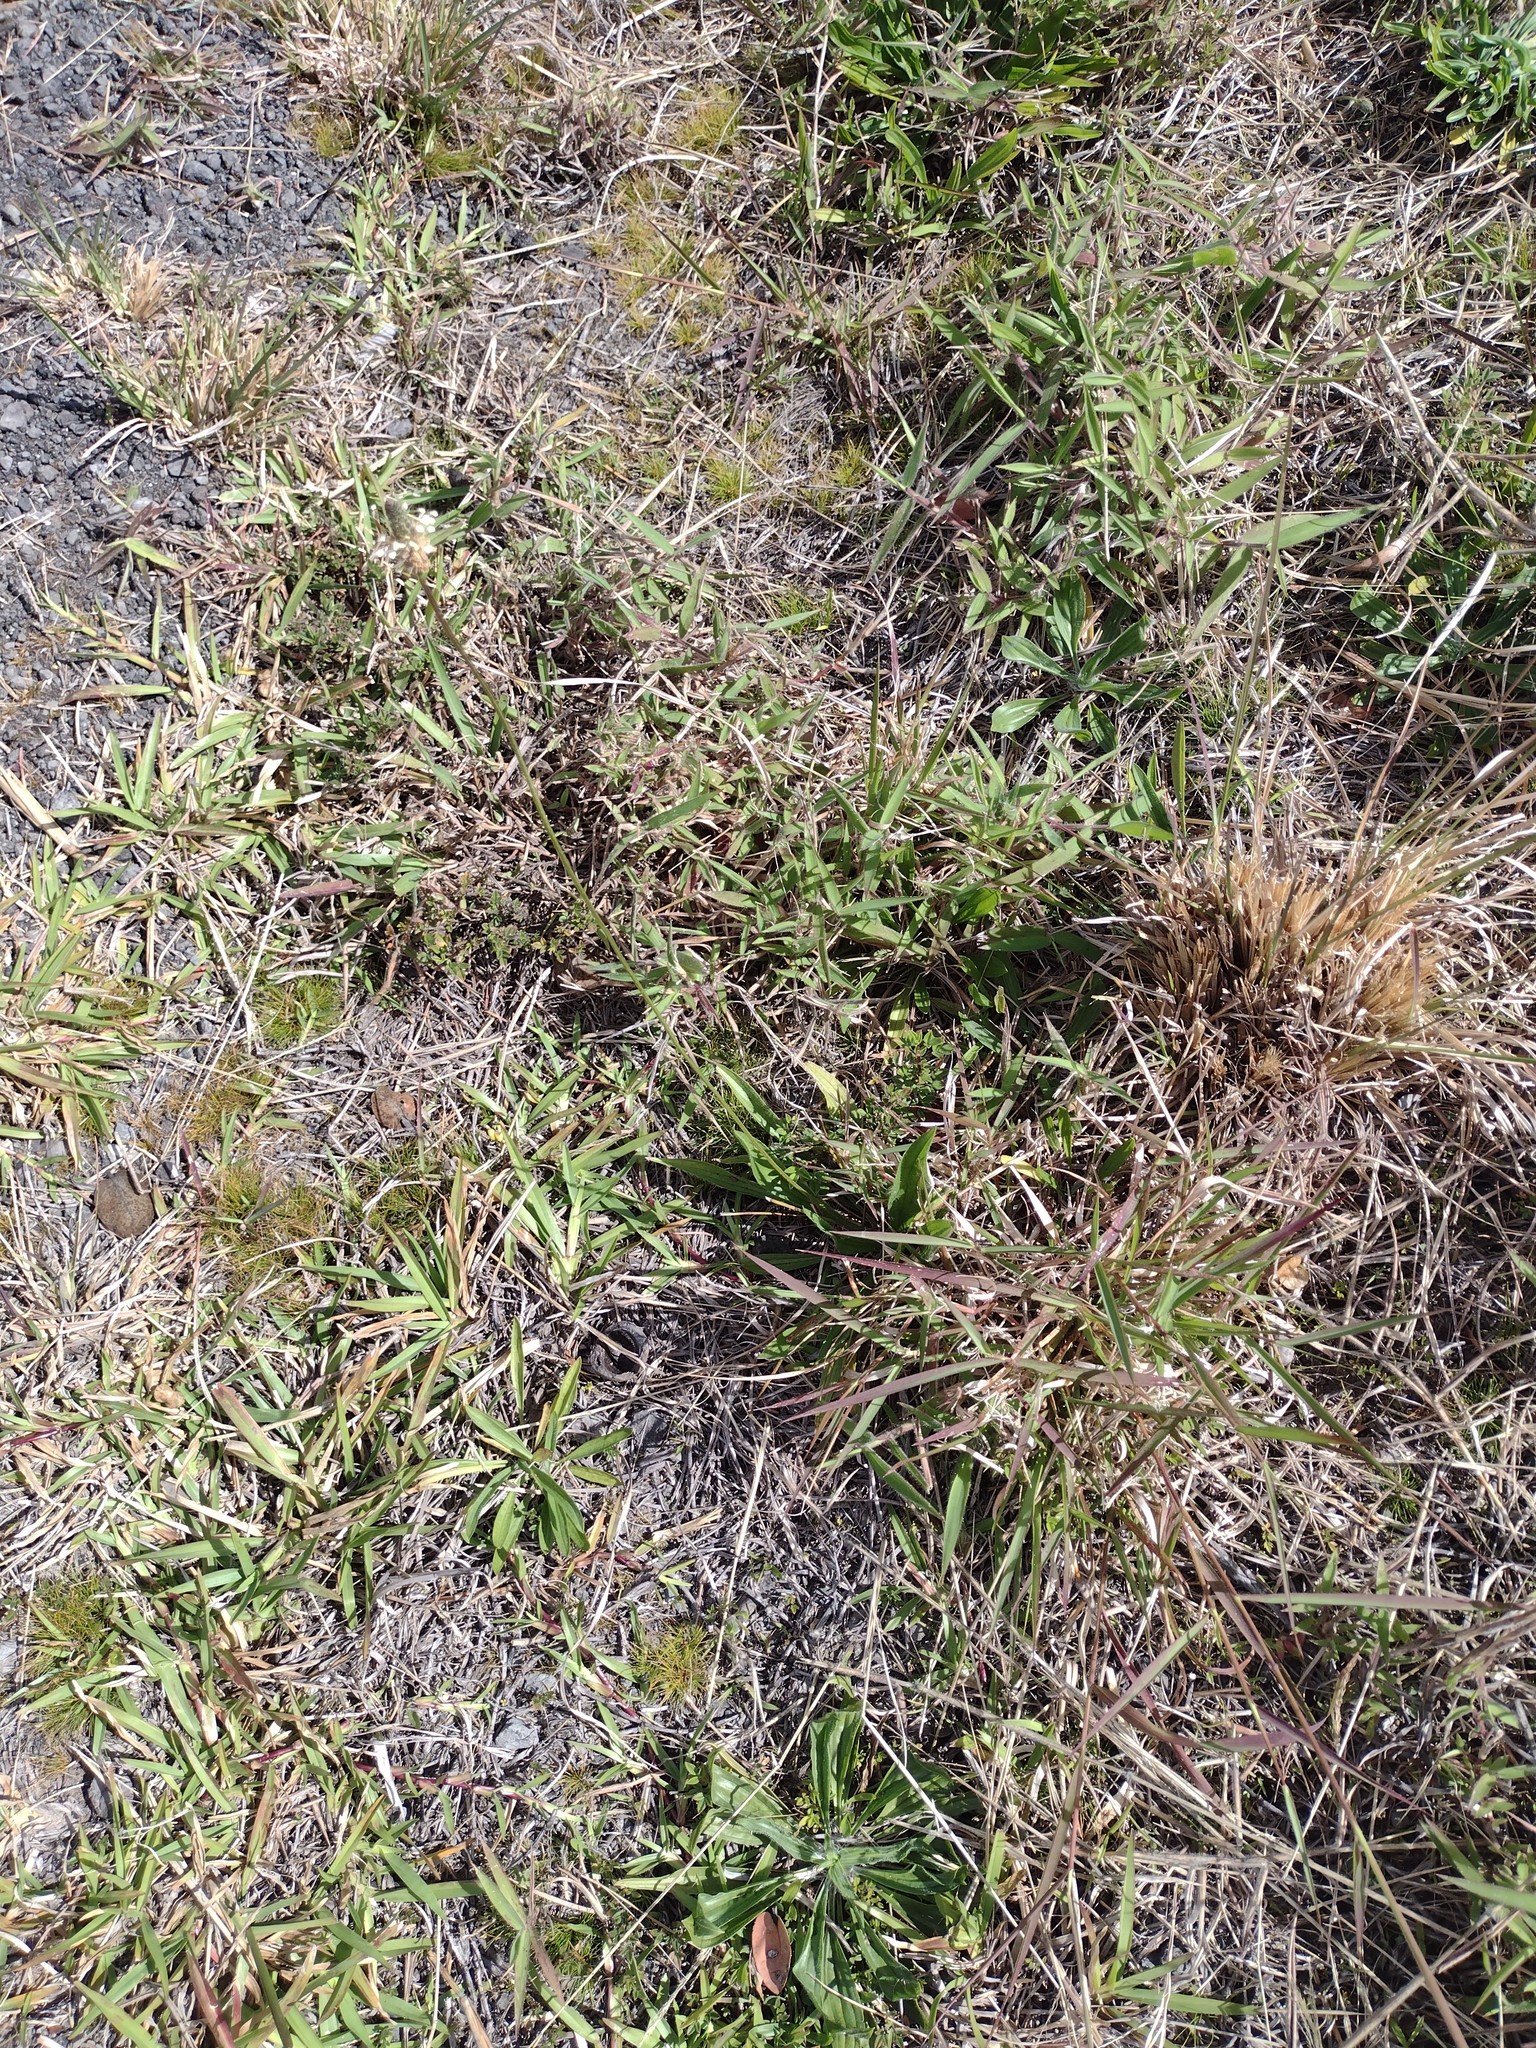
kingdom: Plantae
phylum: Tracheophyta
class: Magnoliopsida
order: Lamiales
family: Plantaginaceae
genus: Plantago
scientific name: Plantago lanceolata
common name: Ribwort plantain
